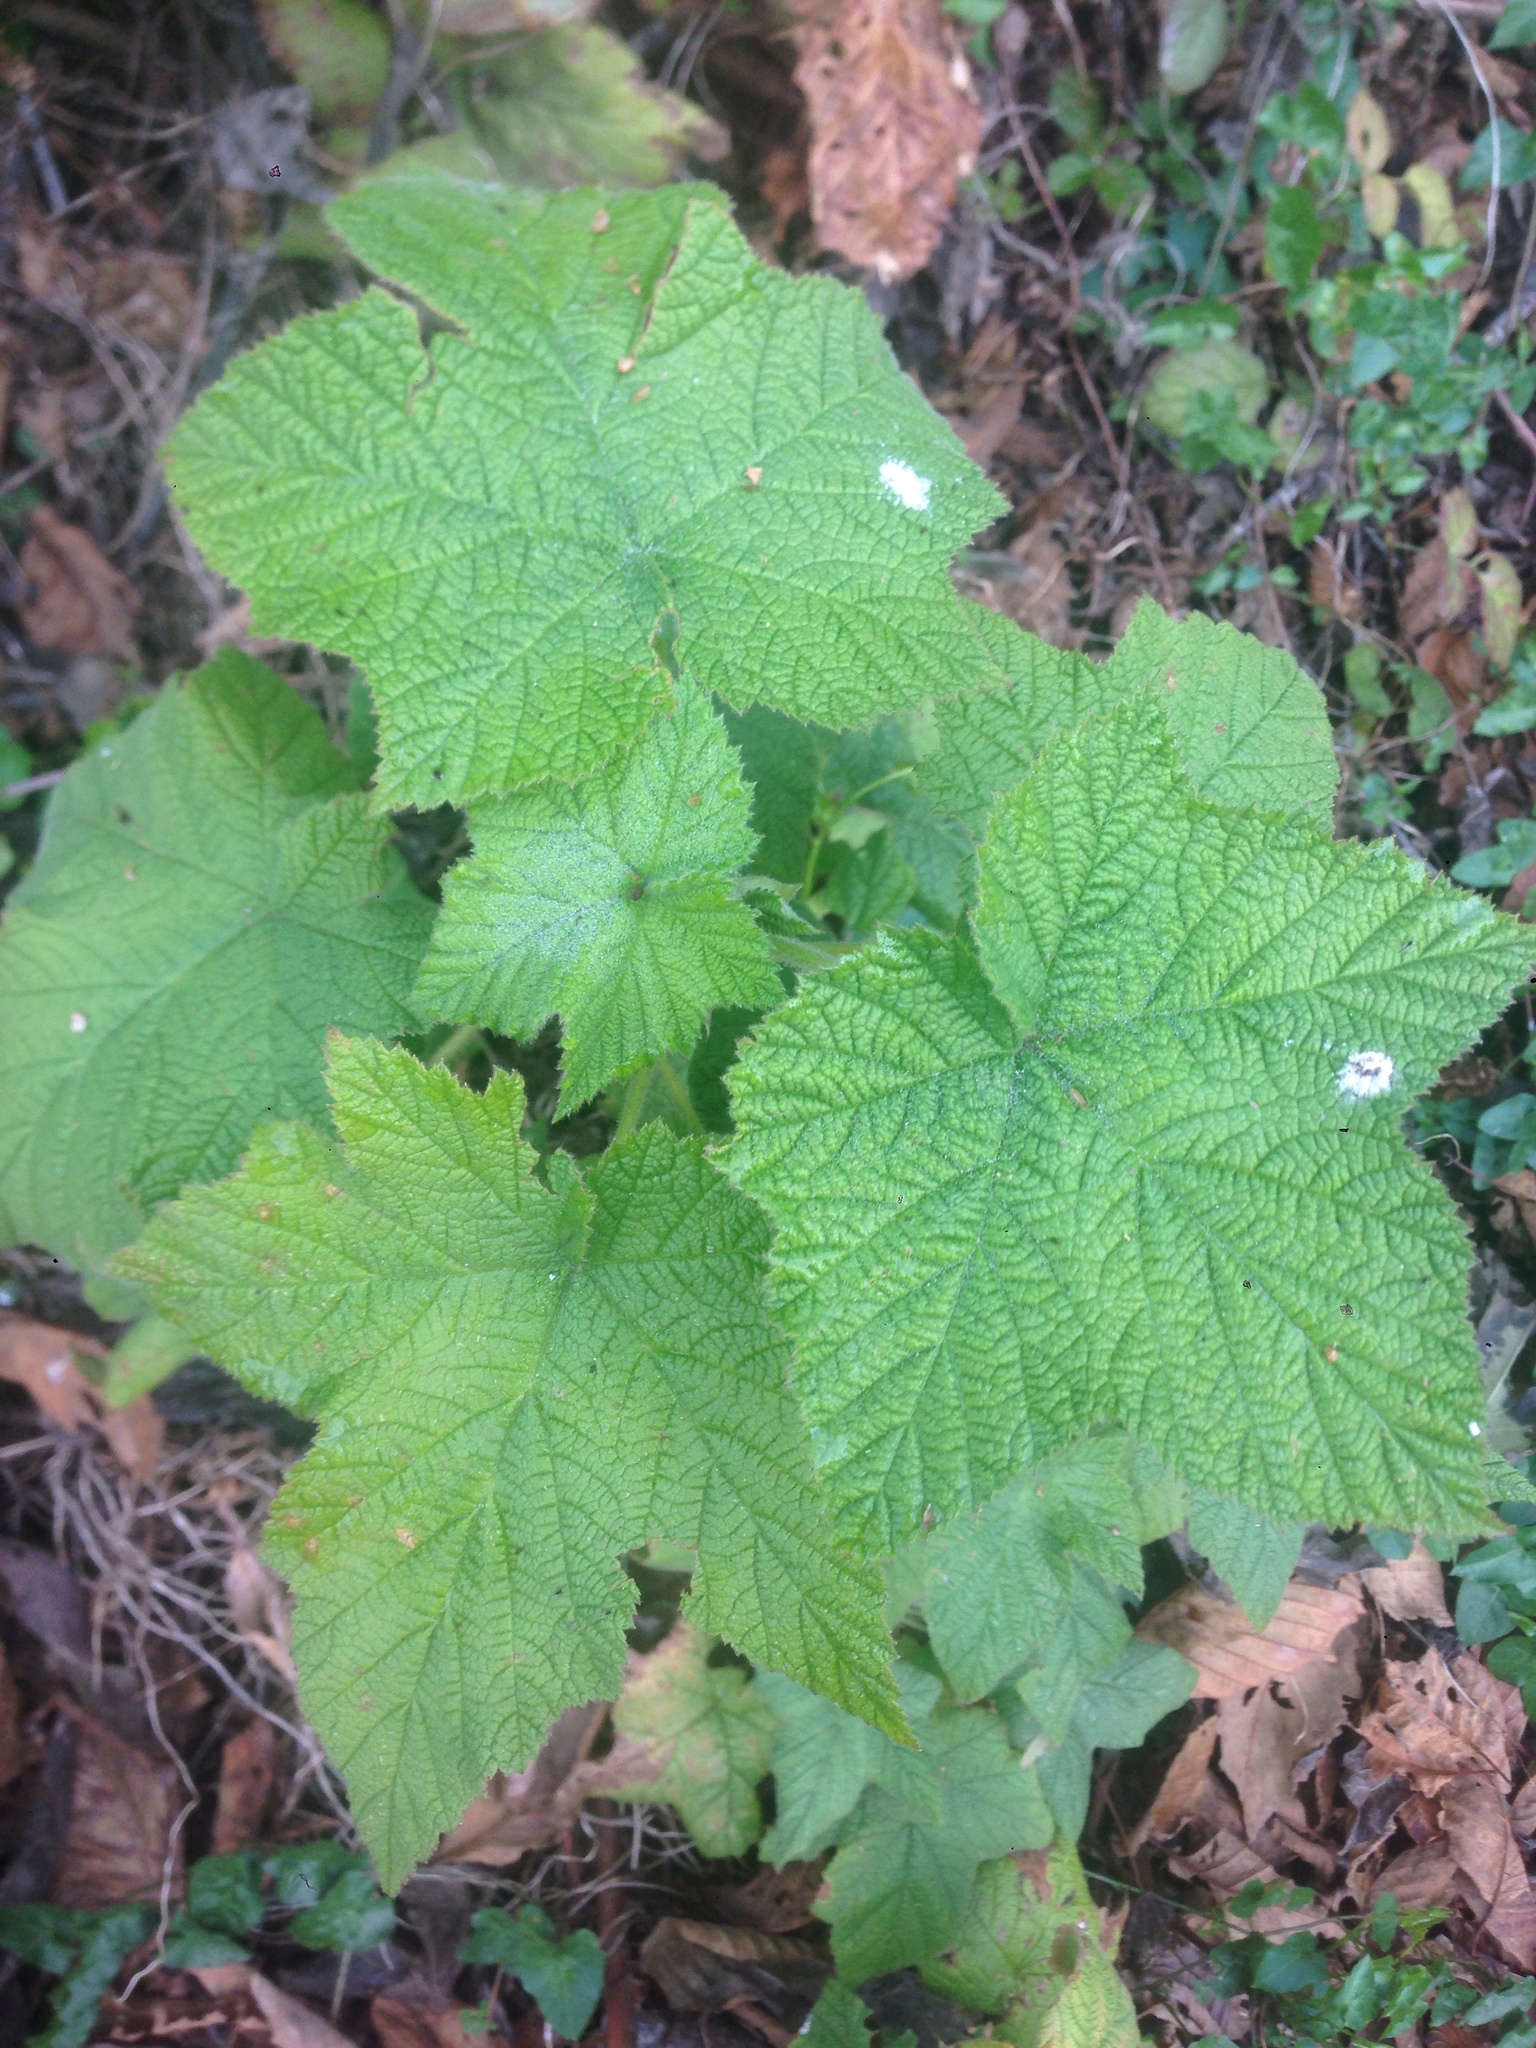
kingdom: Plantae
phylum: Tracheophyta
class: Magnoliopsida
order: Rosales
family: Rosaceae
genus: Rubus
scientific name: Rubus parviflorus
